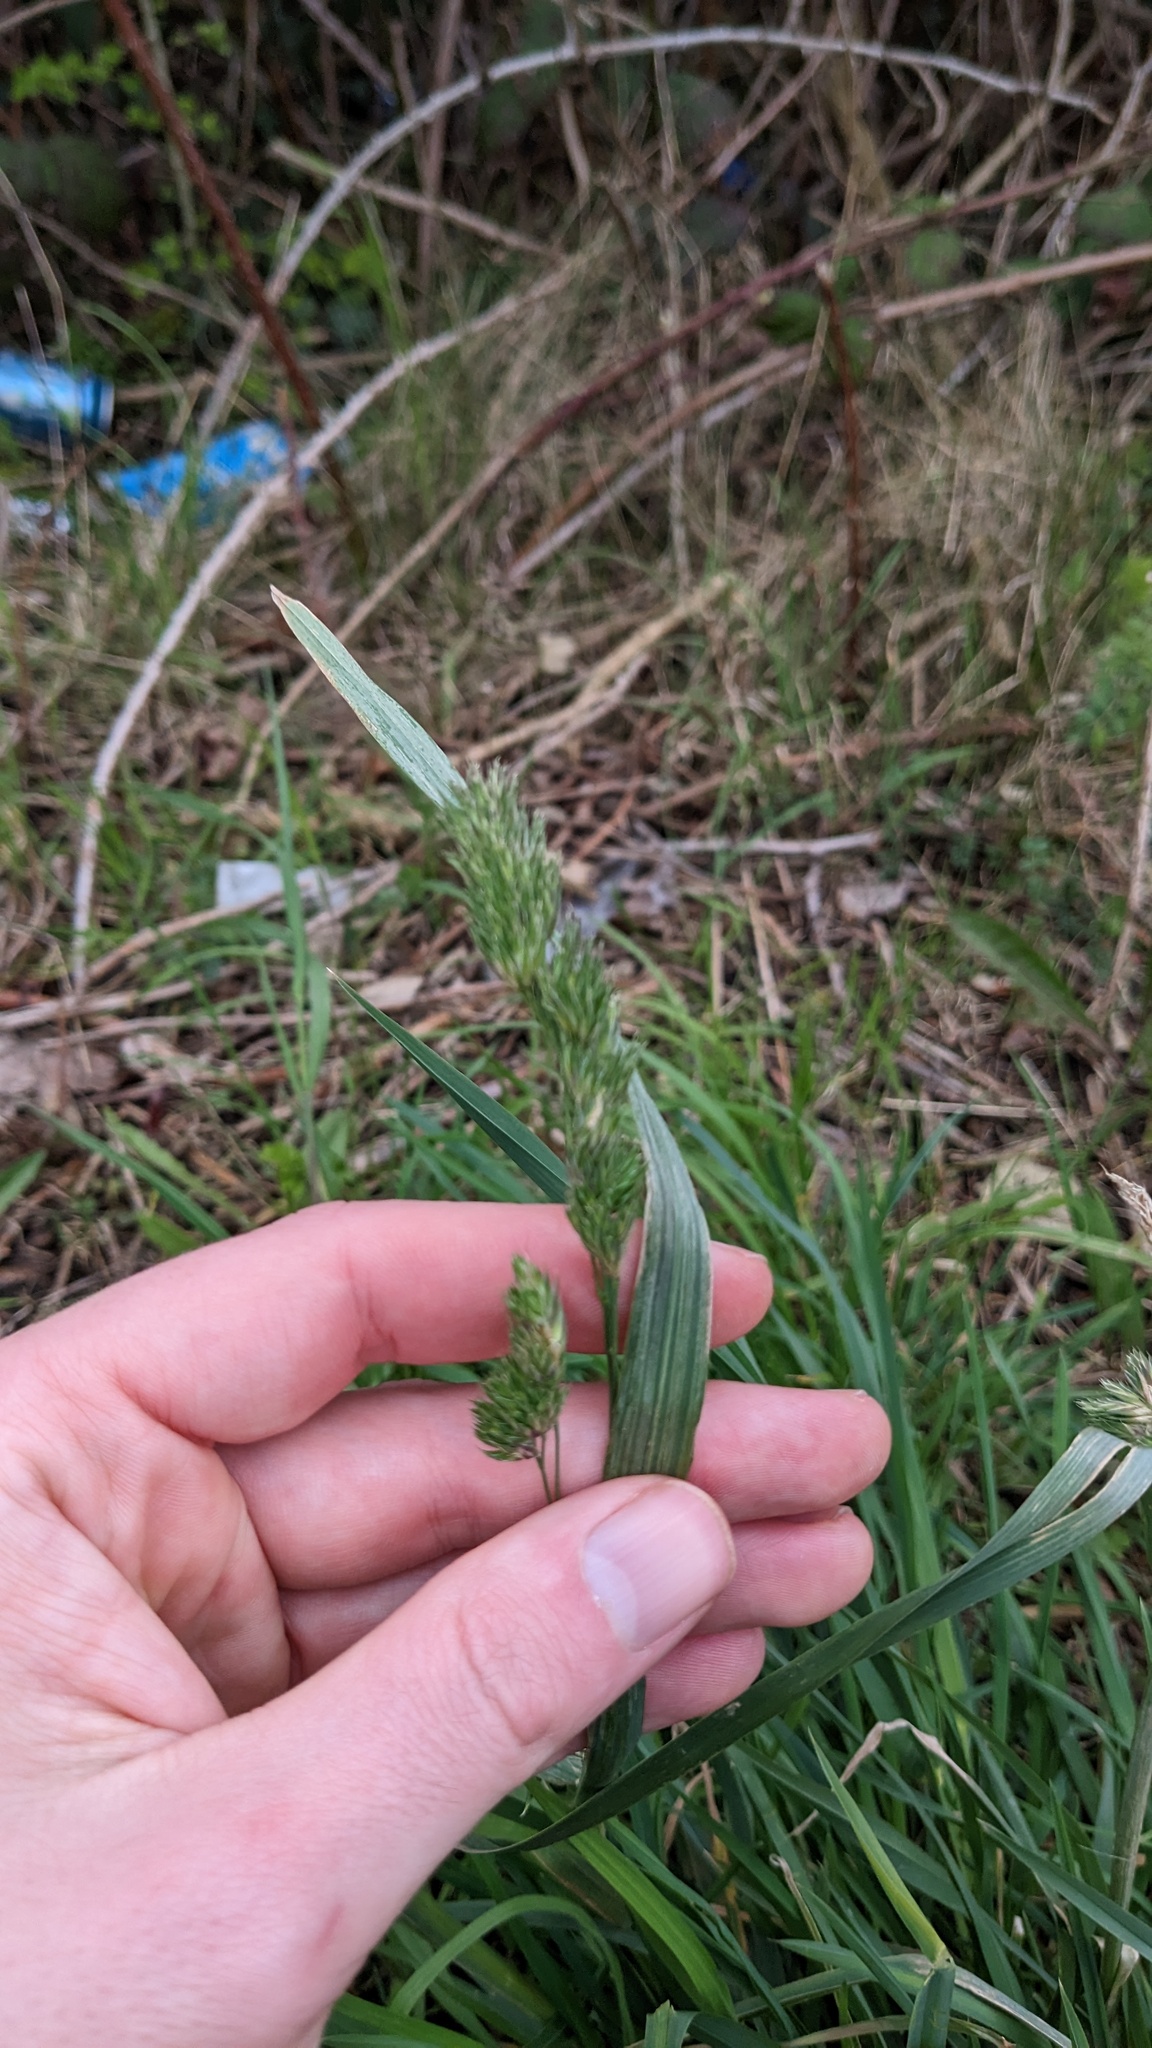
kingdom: Plantae
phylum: Tracheophyta
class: Liliopsida
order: Poales
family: Poaceae
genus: Dactylis
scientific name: Dactylis glomerata
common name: Orchardgrass
